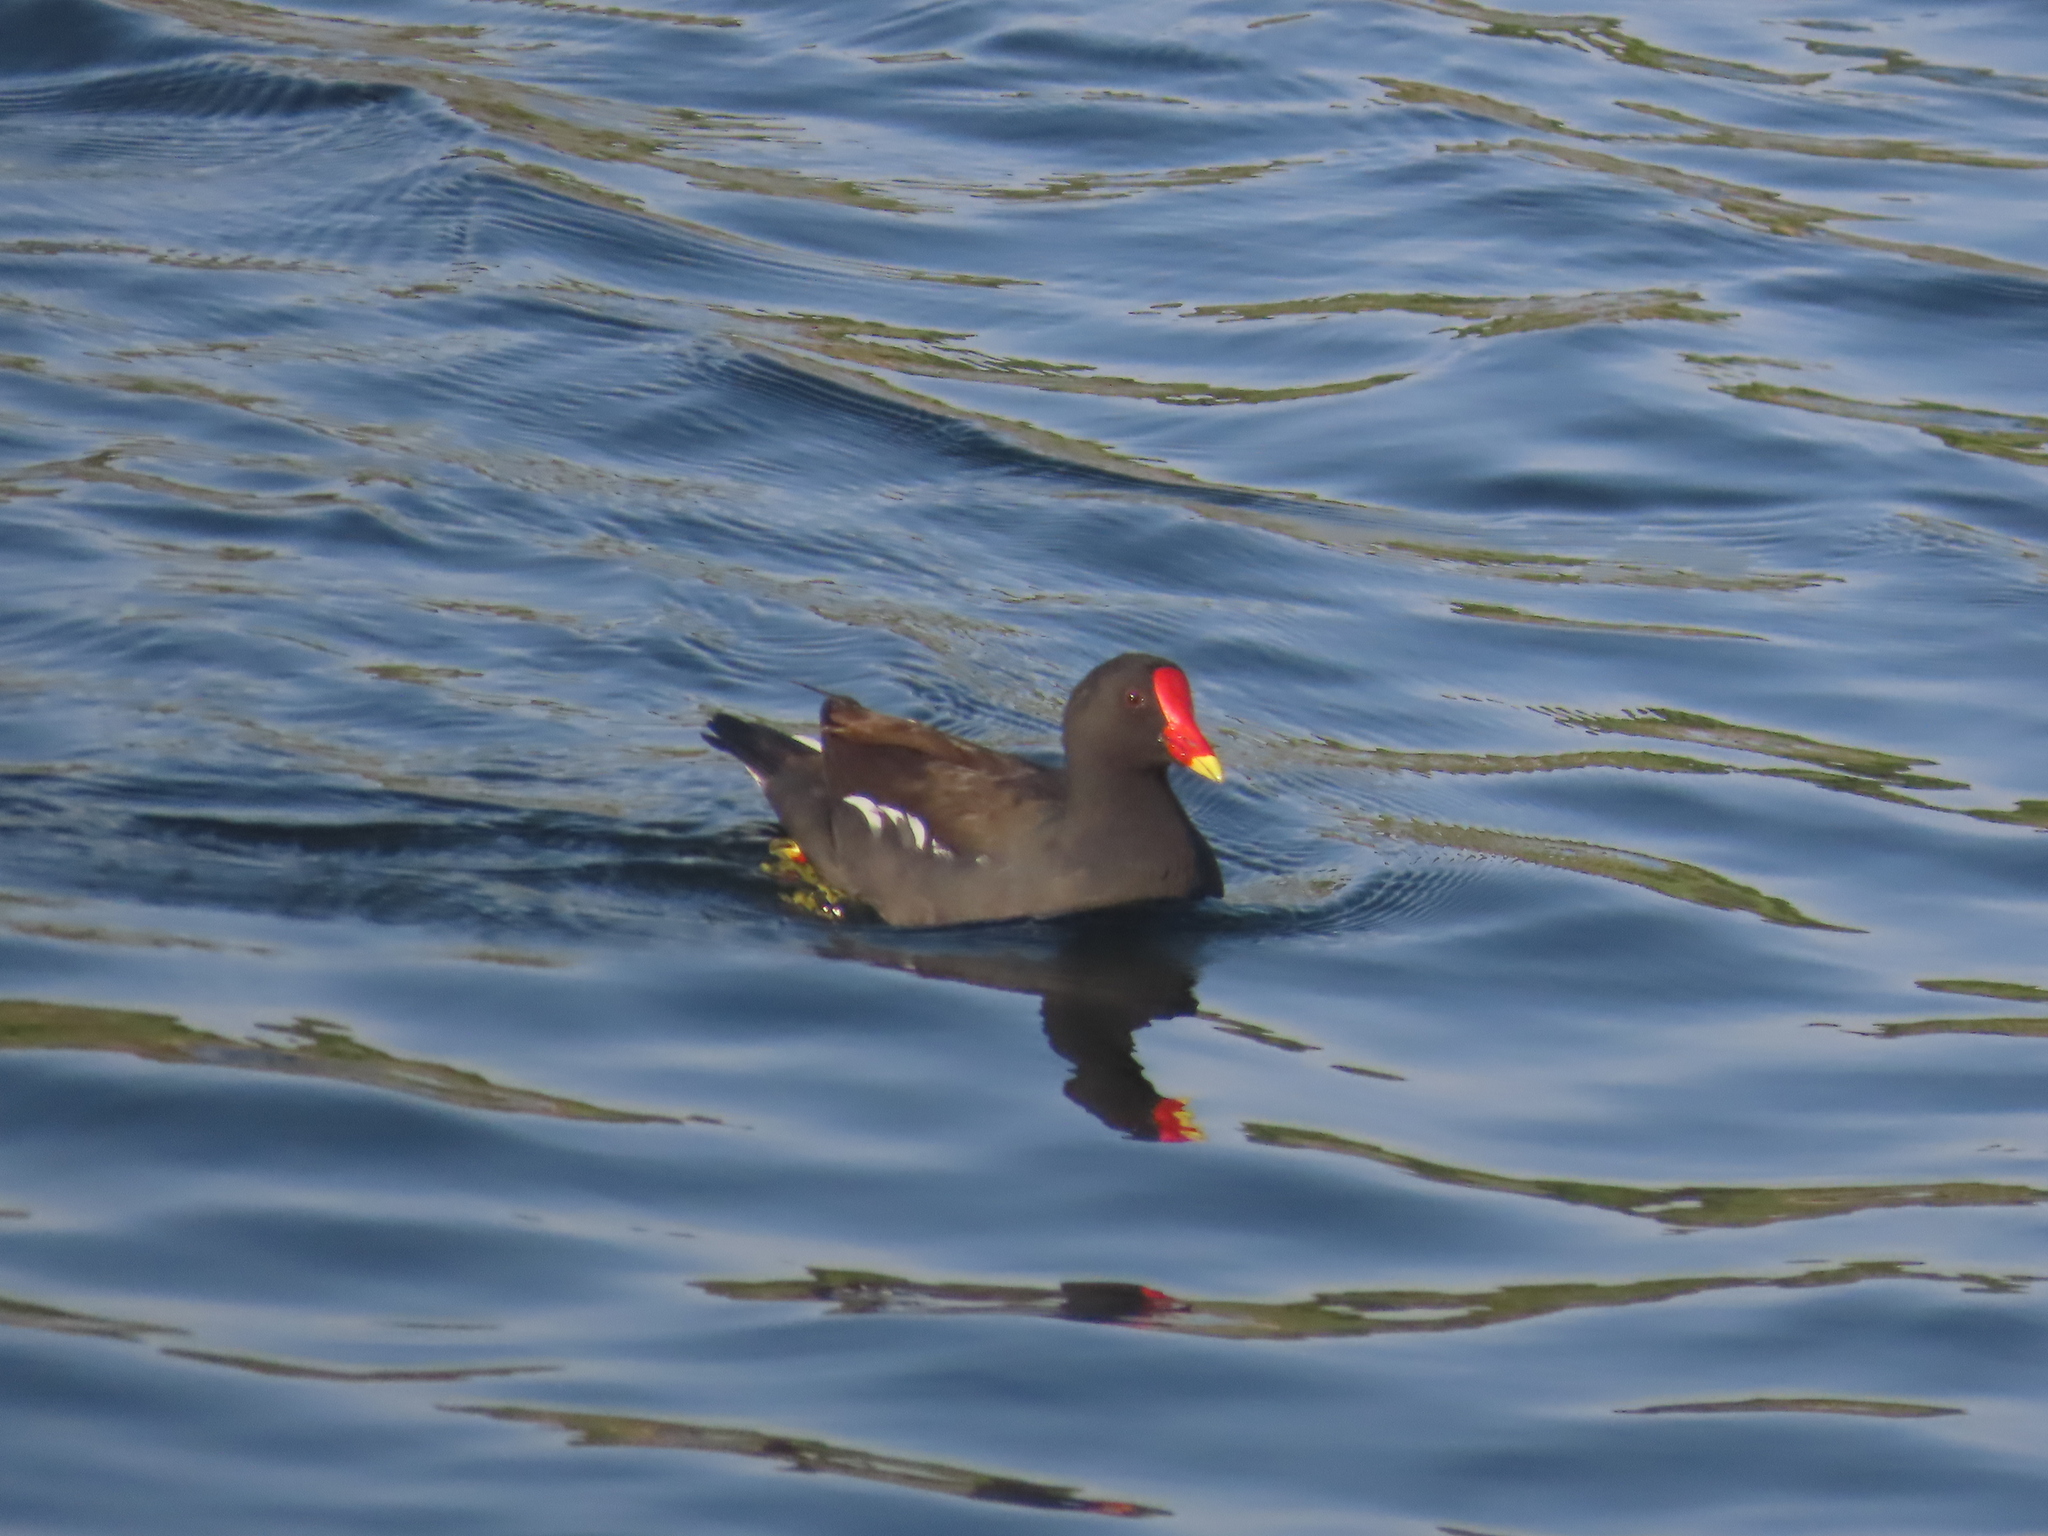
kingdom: Animalia
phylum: Chordata
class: Aves
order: Gruiformes
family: Rallidae
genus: Gallinula
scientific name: Gallinula chloropus
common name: Common moorhen
